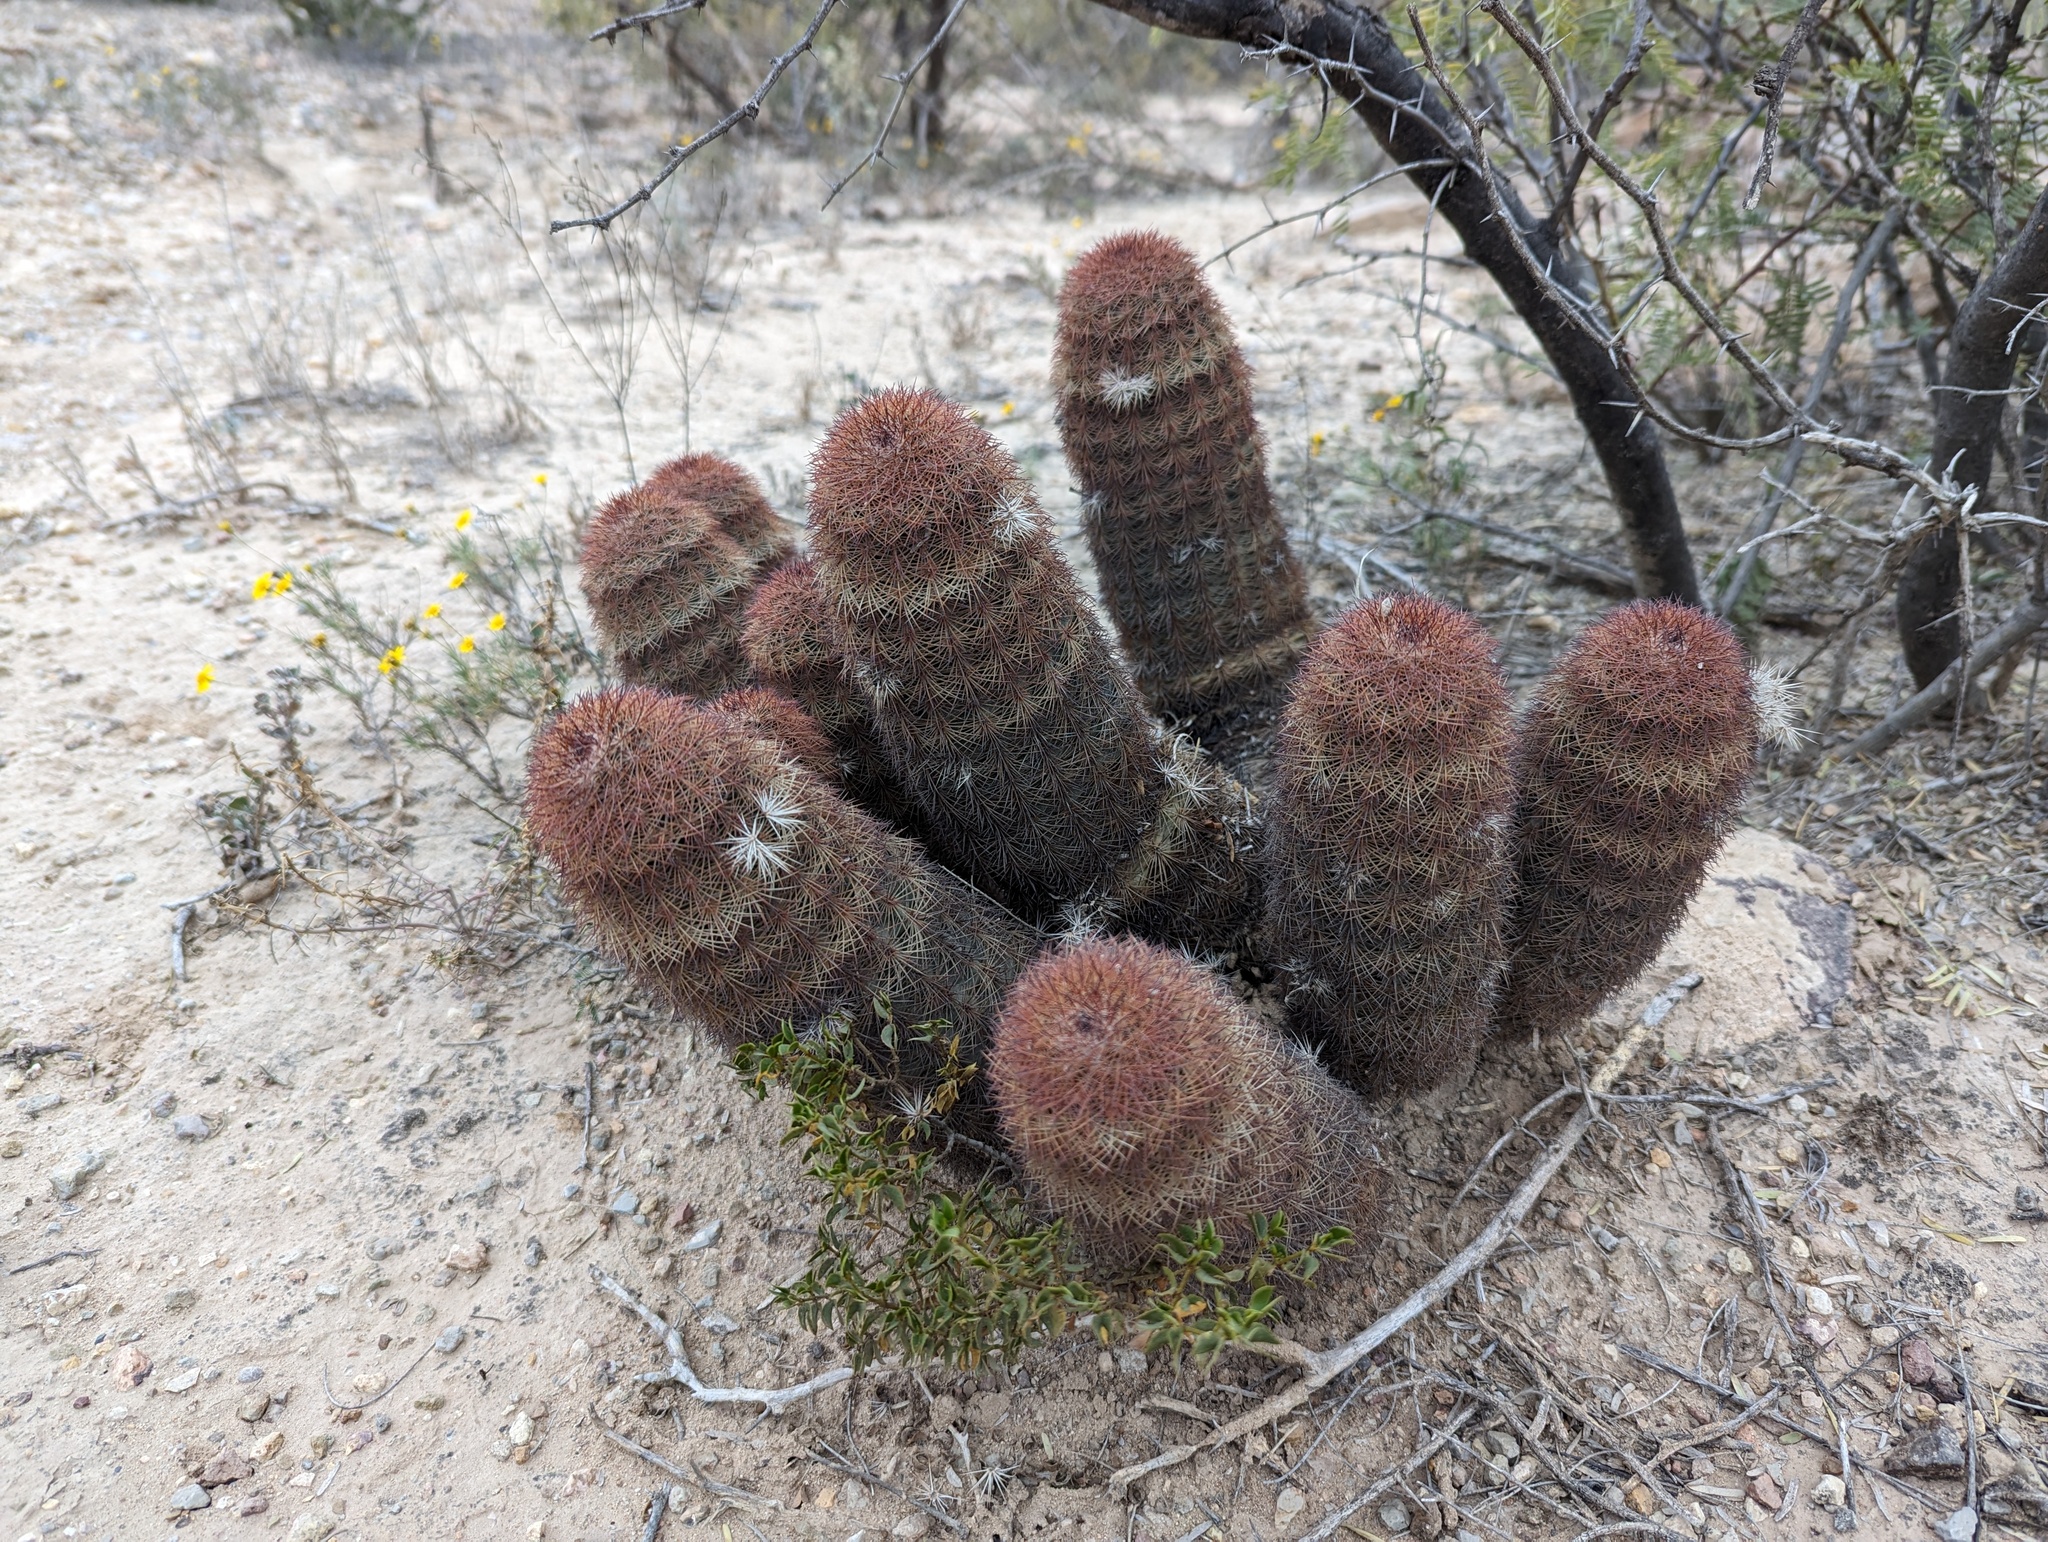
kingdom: Plantae
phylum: Tracheophyta
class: Magnoliopsida
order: Caryophyllales
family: Cactaceae
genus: Echinocereus
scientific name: Echinocereus dasyacanthus
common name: Spiny hedgehog cactus
